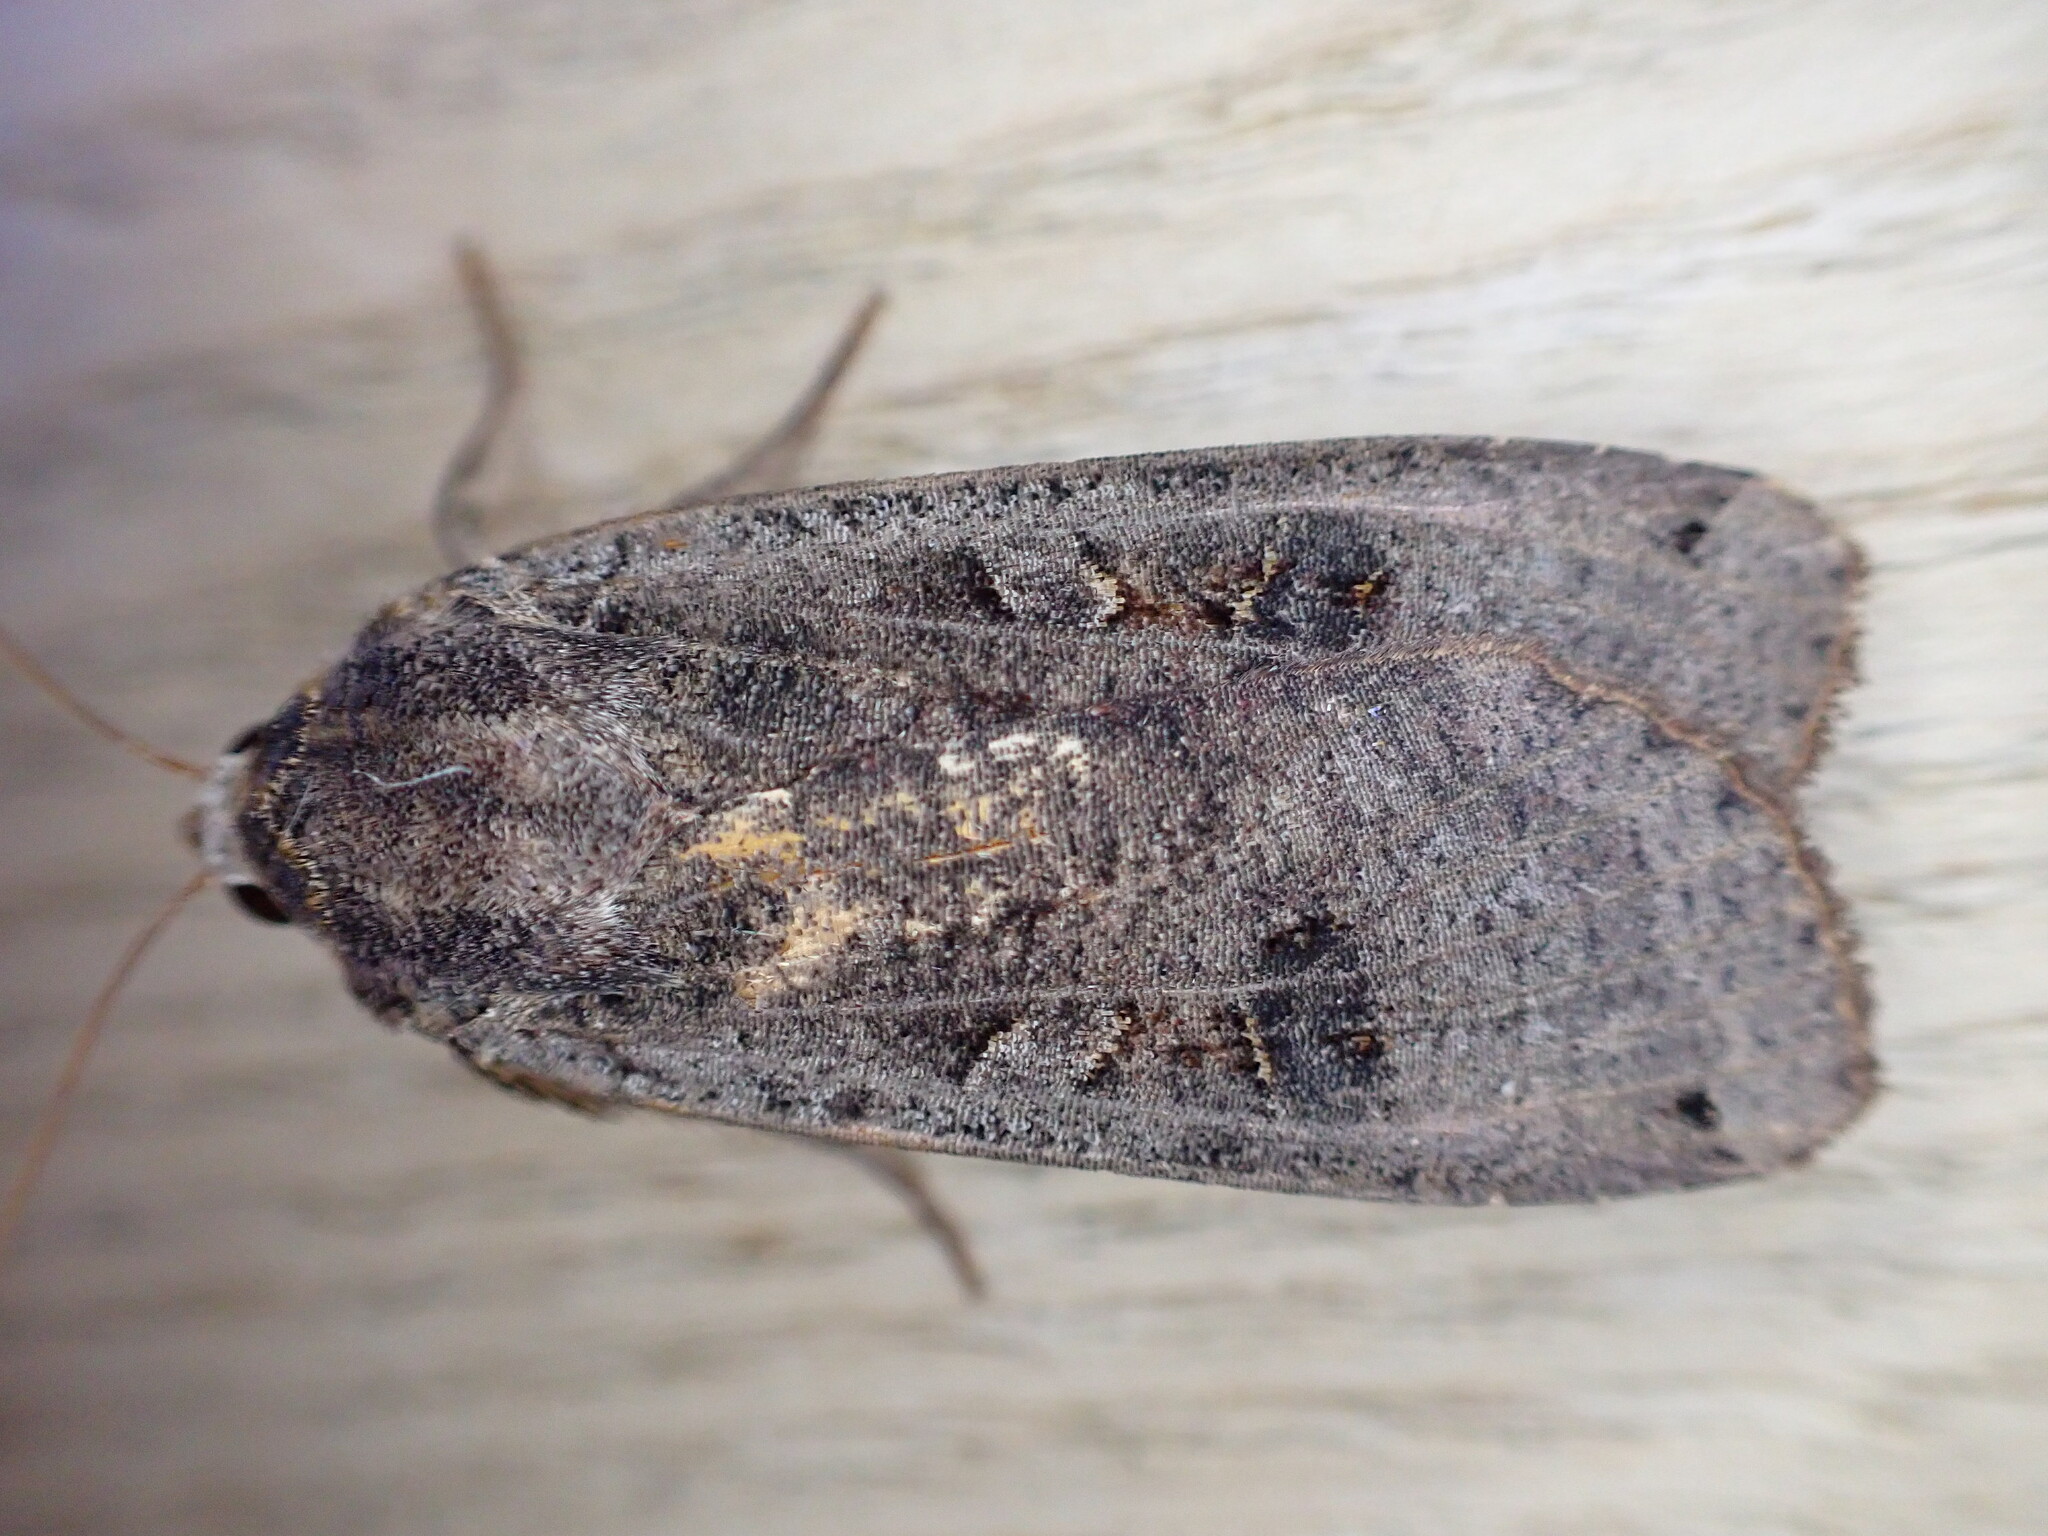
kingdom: Animalia
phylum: Arthropoda
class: Insecta
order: Lepidoptera
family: Noctuidae
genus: Noctua
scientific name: Noctua pronuba
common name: Large yellow underwing
